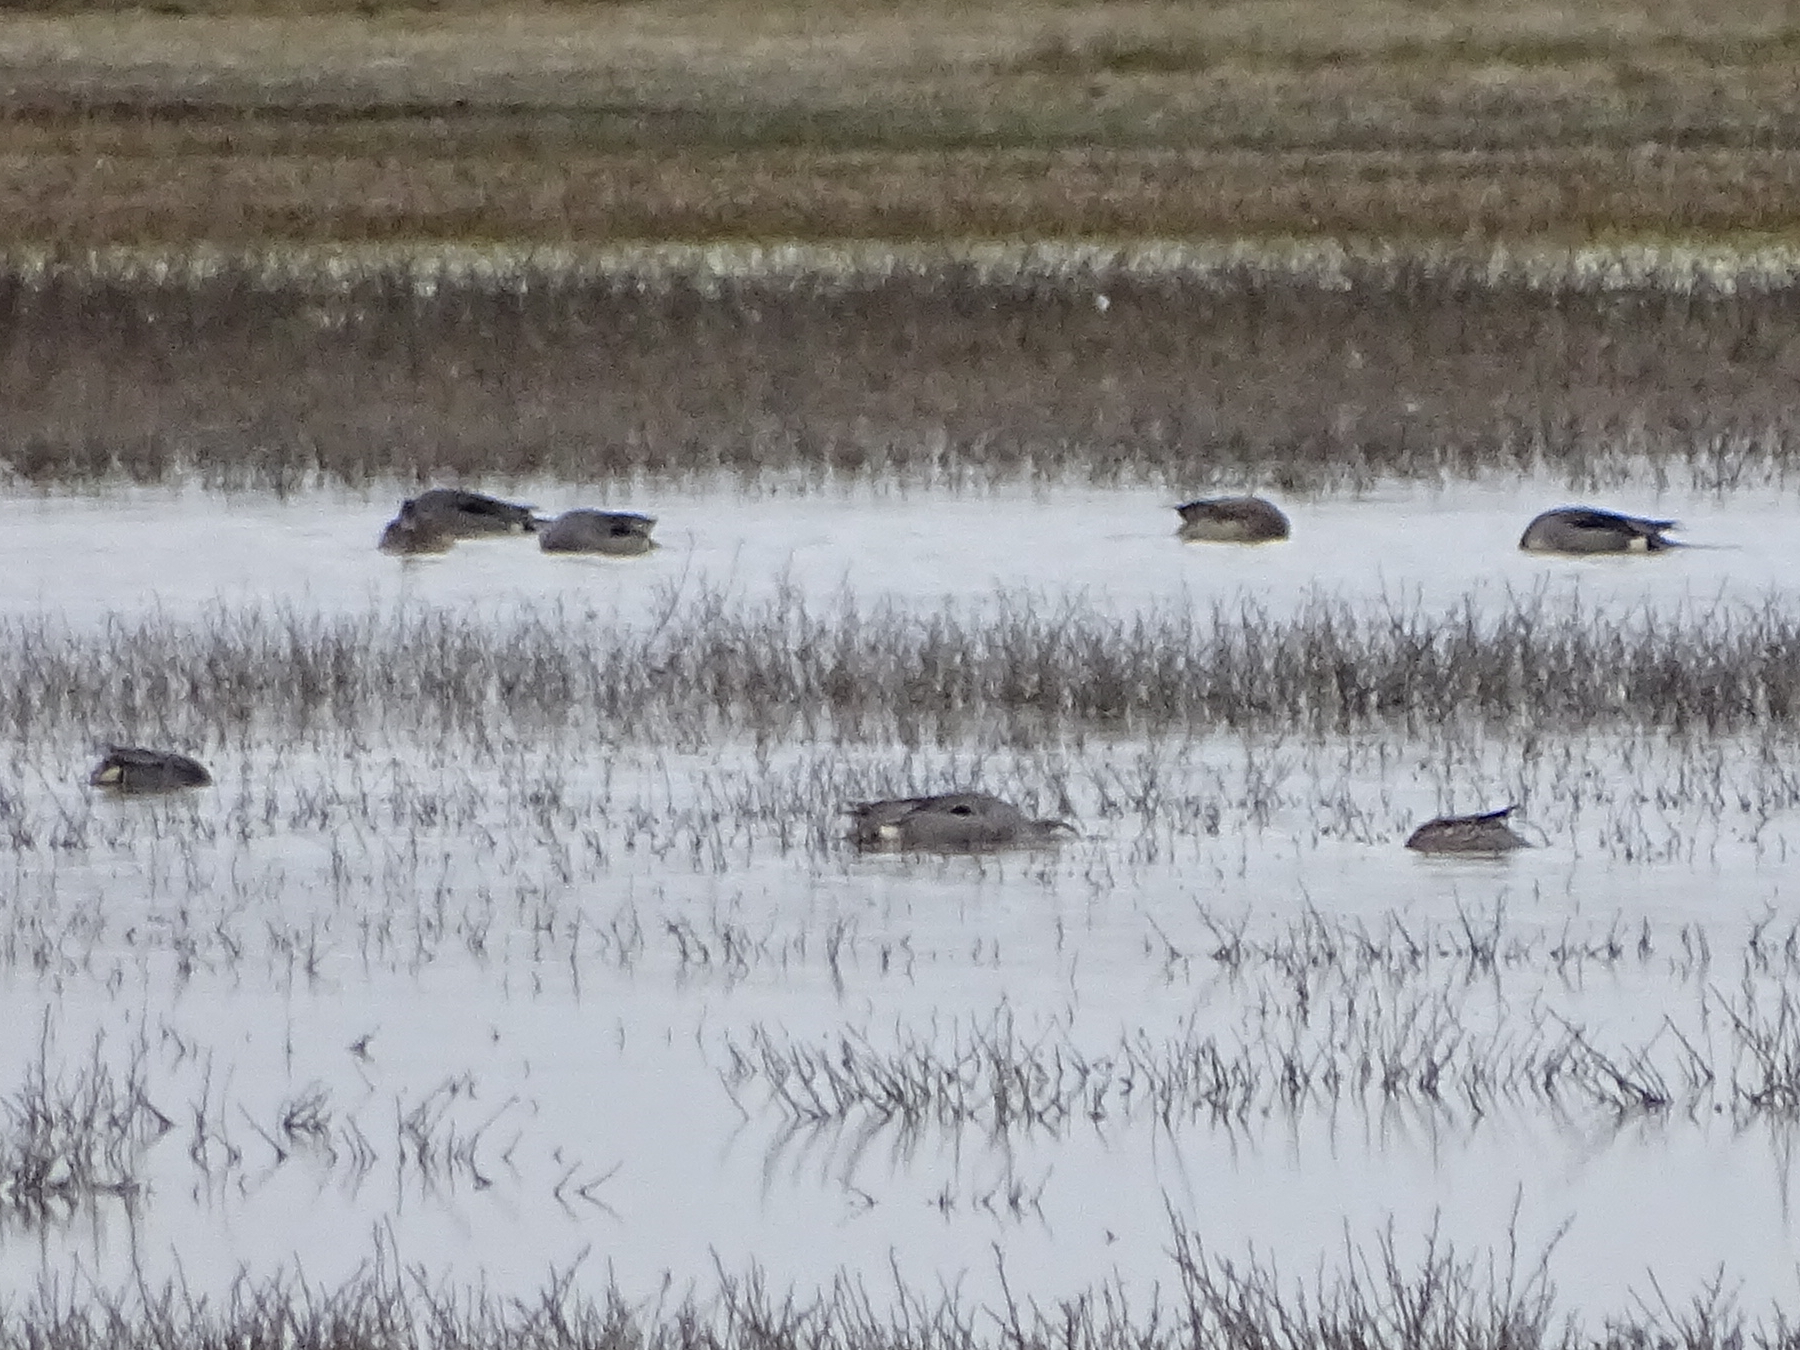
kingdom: Animalia
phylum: Chordata
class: Aves
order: Anseriformes
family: Anatidae
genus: Anas
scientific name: Anas acuta
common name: Northern pintail
